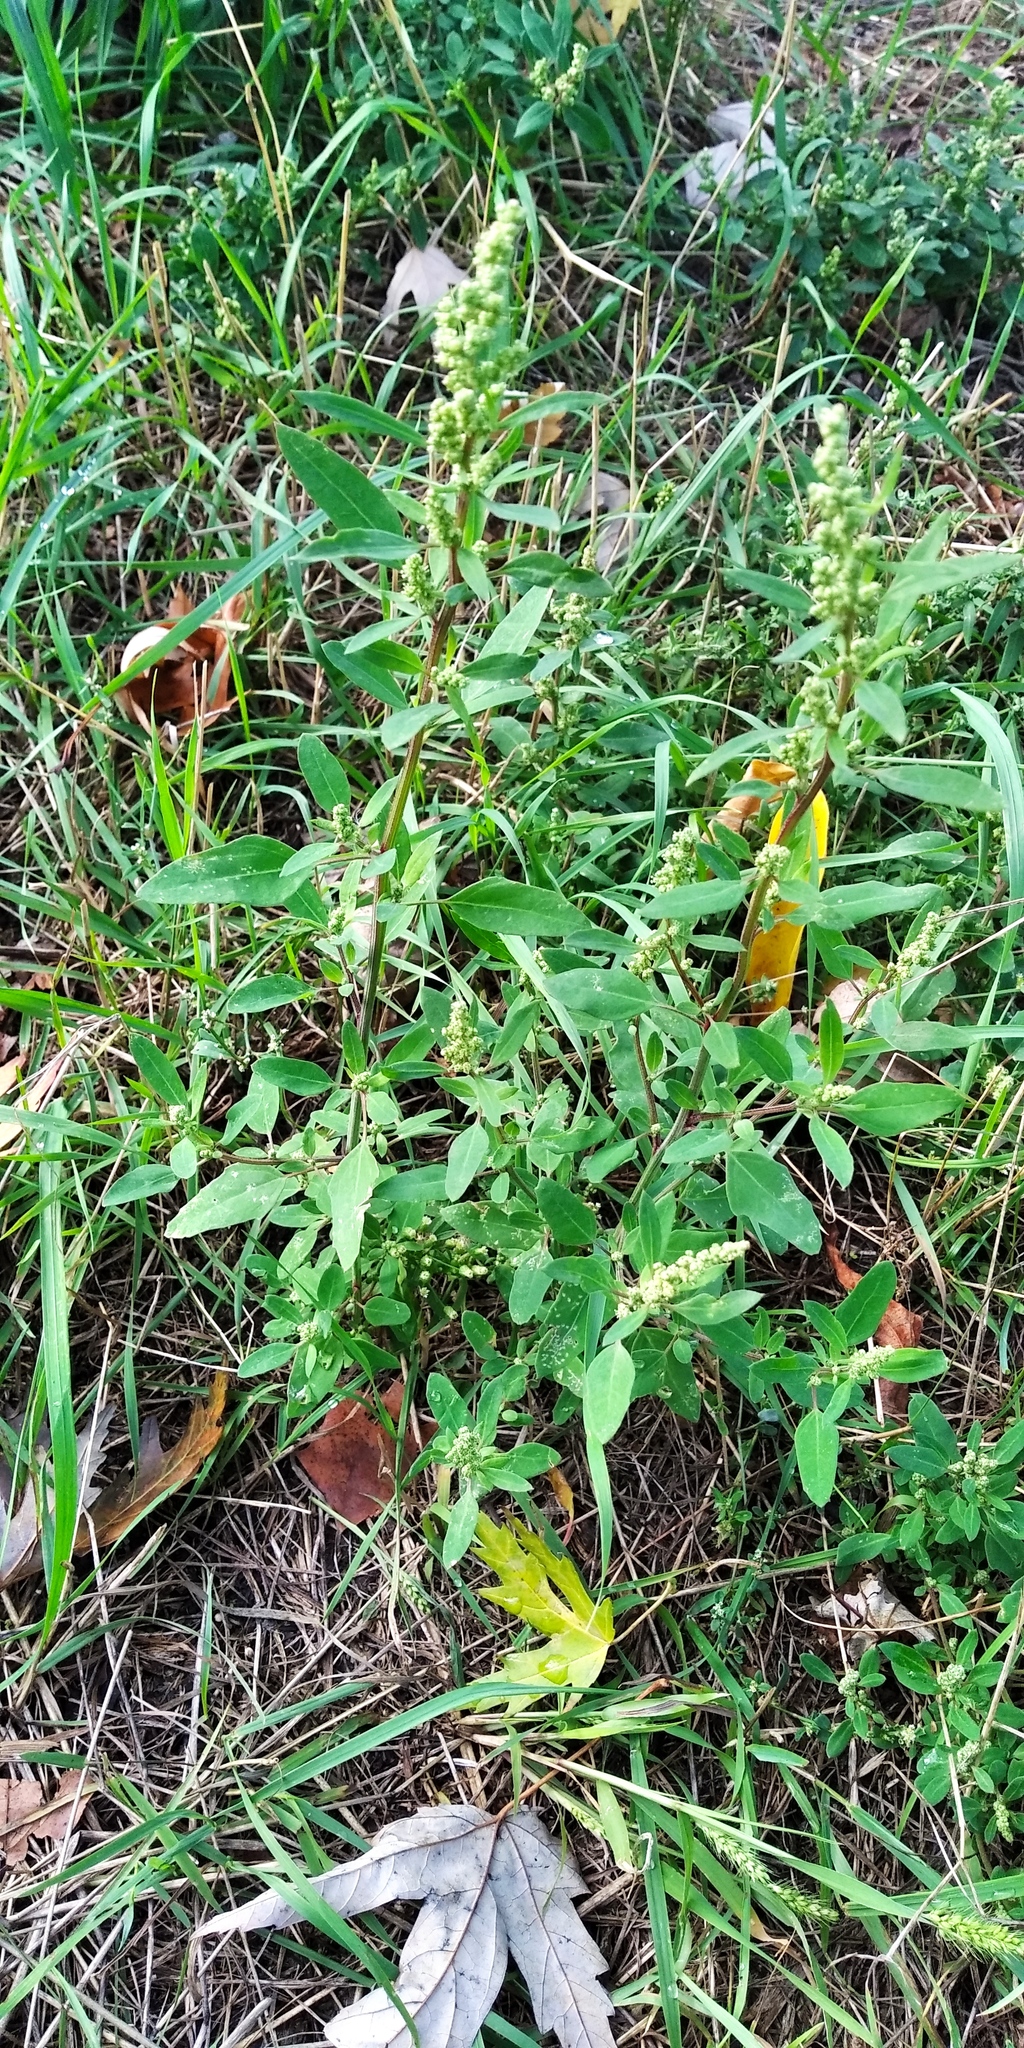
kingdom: Plantae
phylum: Tracheophyta
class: Magnoliopsida
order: Caryophyllales
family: Amaranthaceae
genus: Chenopodium
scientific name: Chenopodium betaceum
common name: Striped goosefoot
